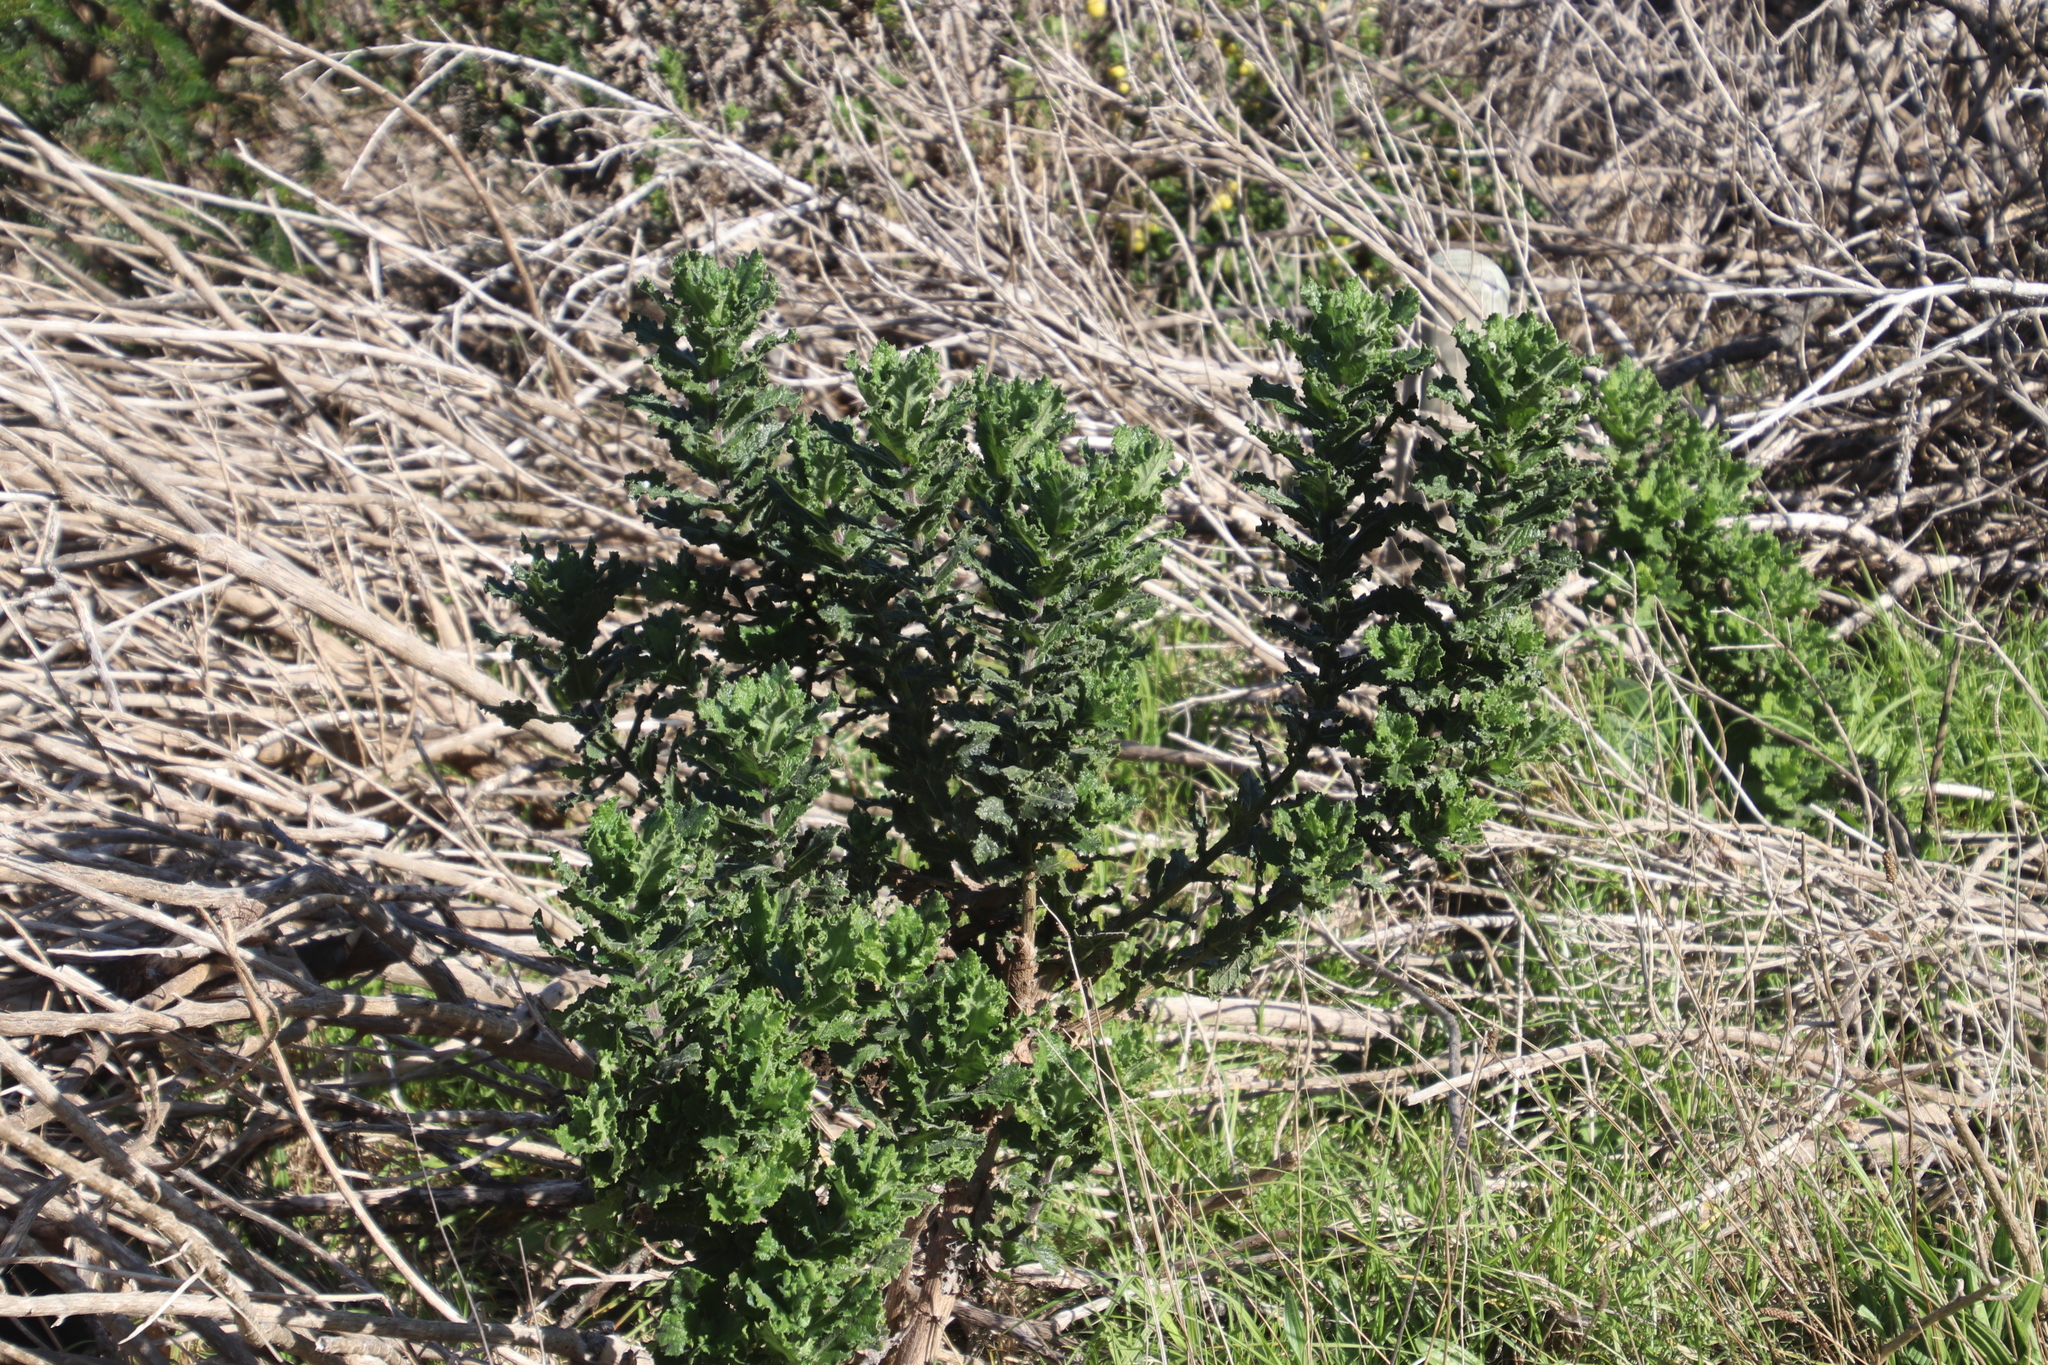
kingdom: Plantae
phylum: Tracheophyta
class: Magnoliopsida
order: Asterales
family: Asteraceae
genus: Senecio
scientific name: Senecio rigidus
